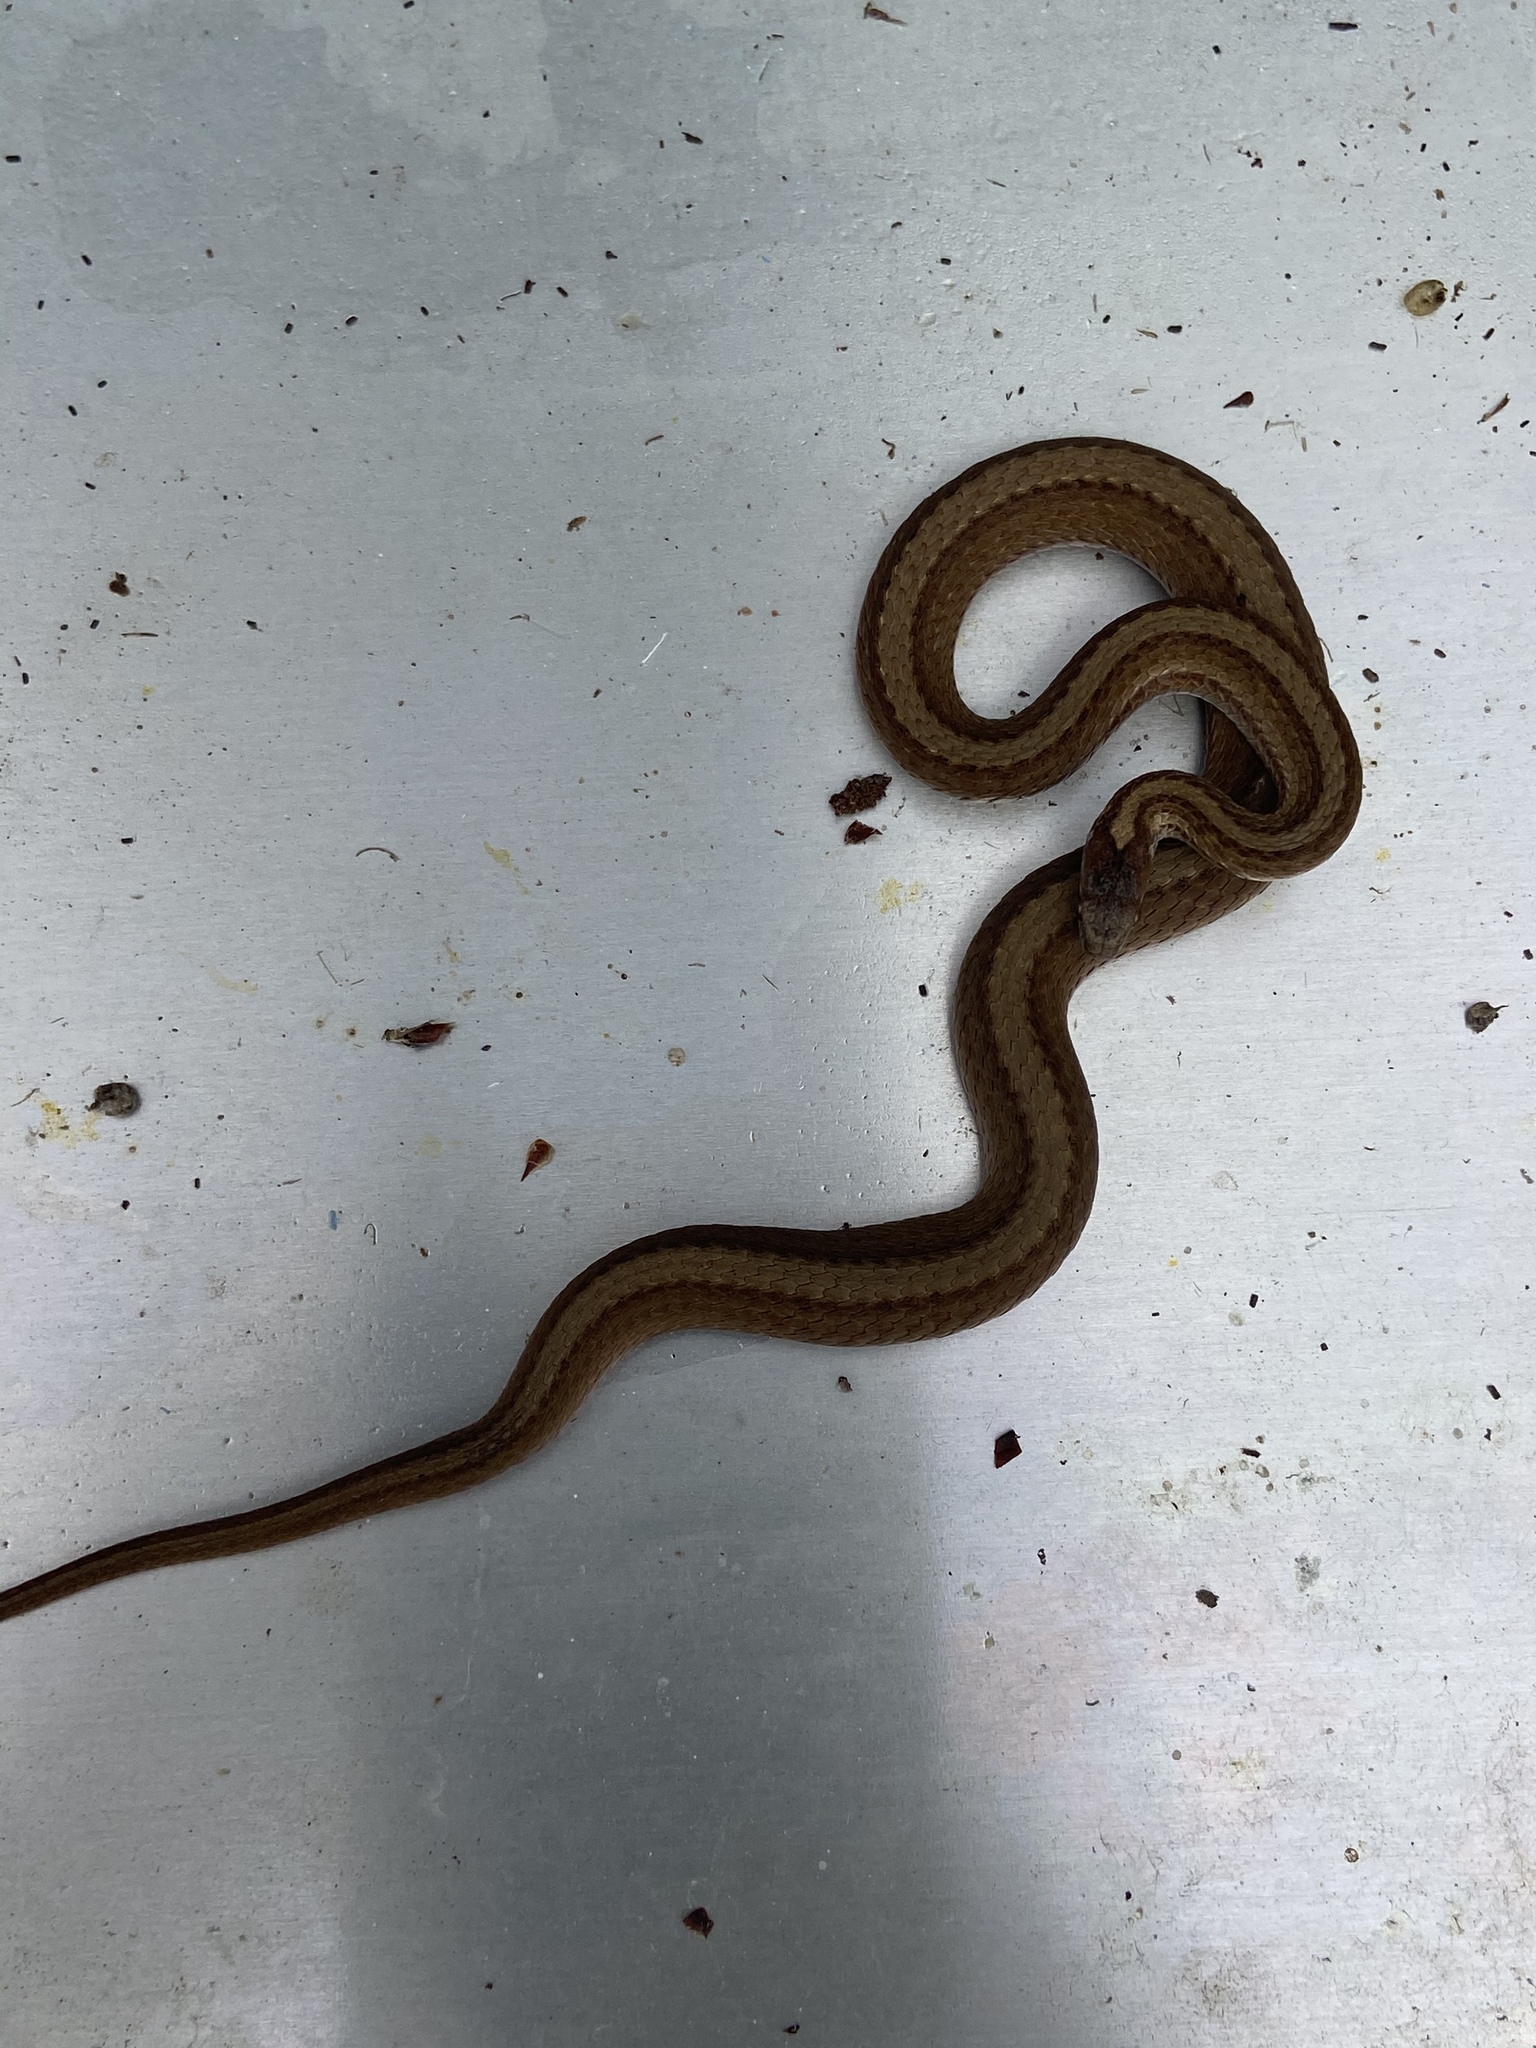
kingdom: Animalia
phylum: Chordata
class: Squamata
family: Colubridae
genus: Storeria
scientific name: Storeria occipitomaculata
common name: Redbelly snake
